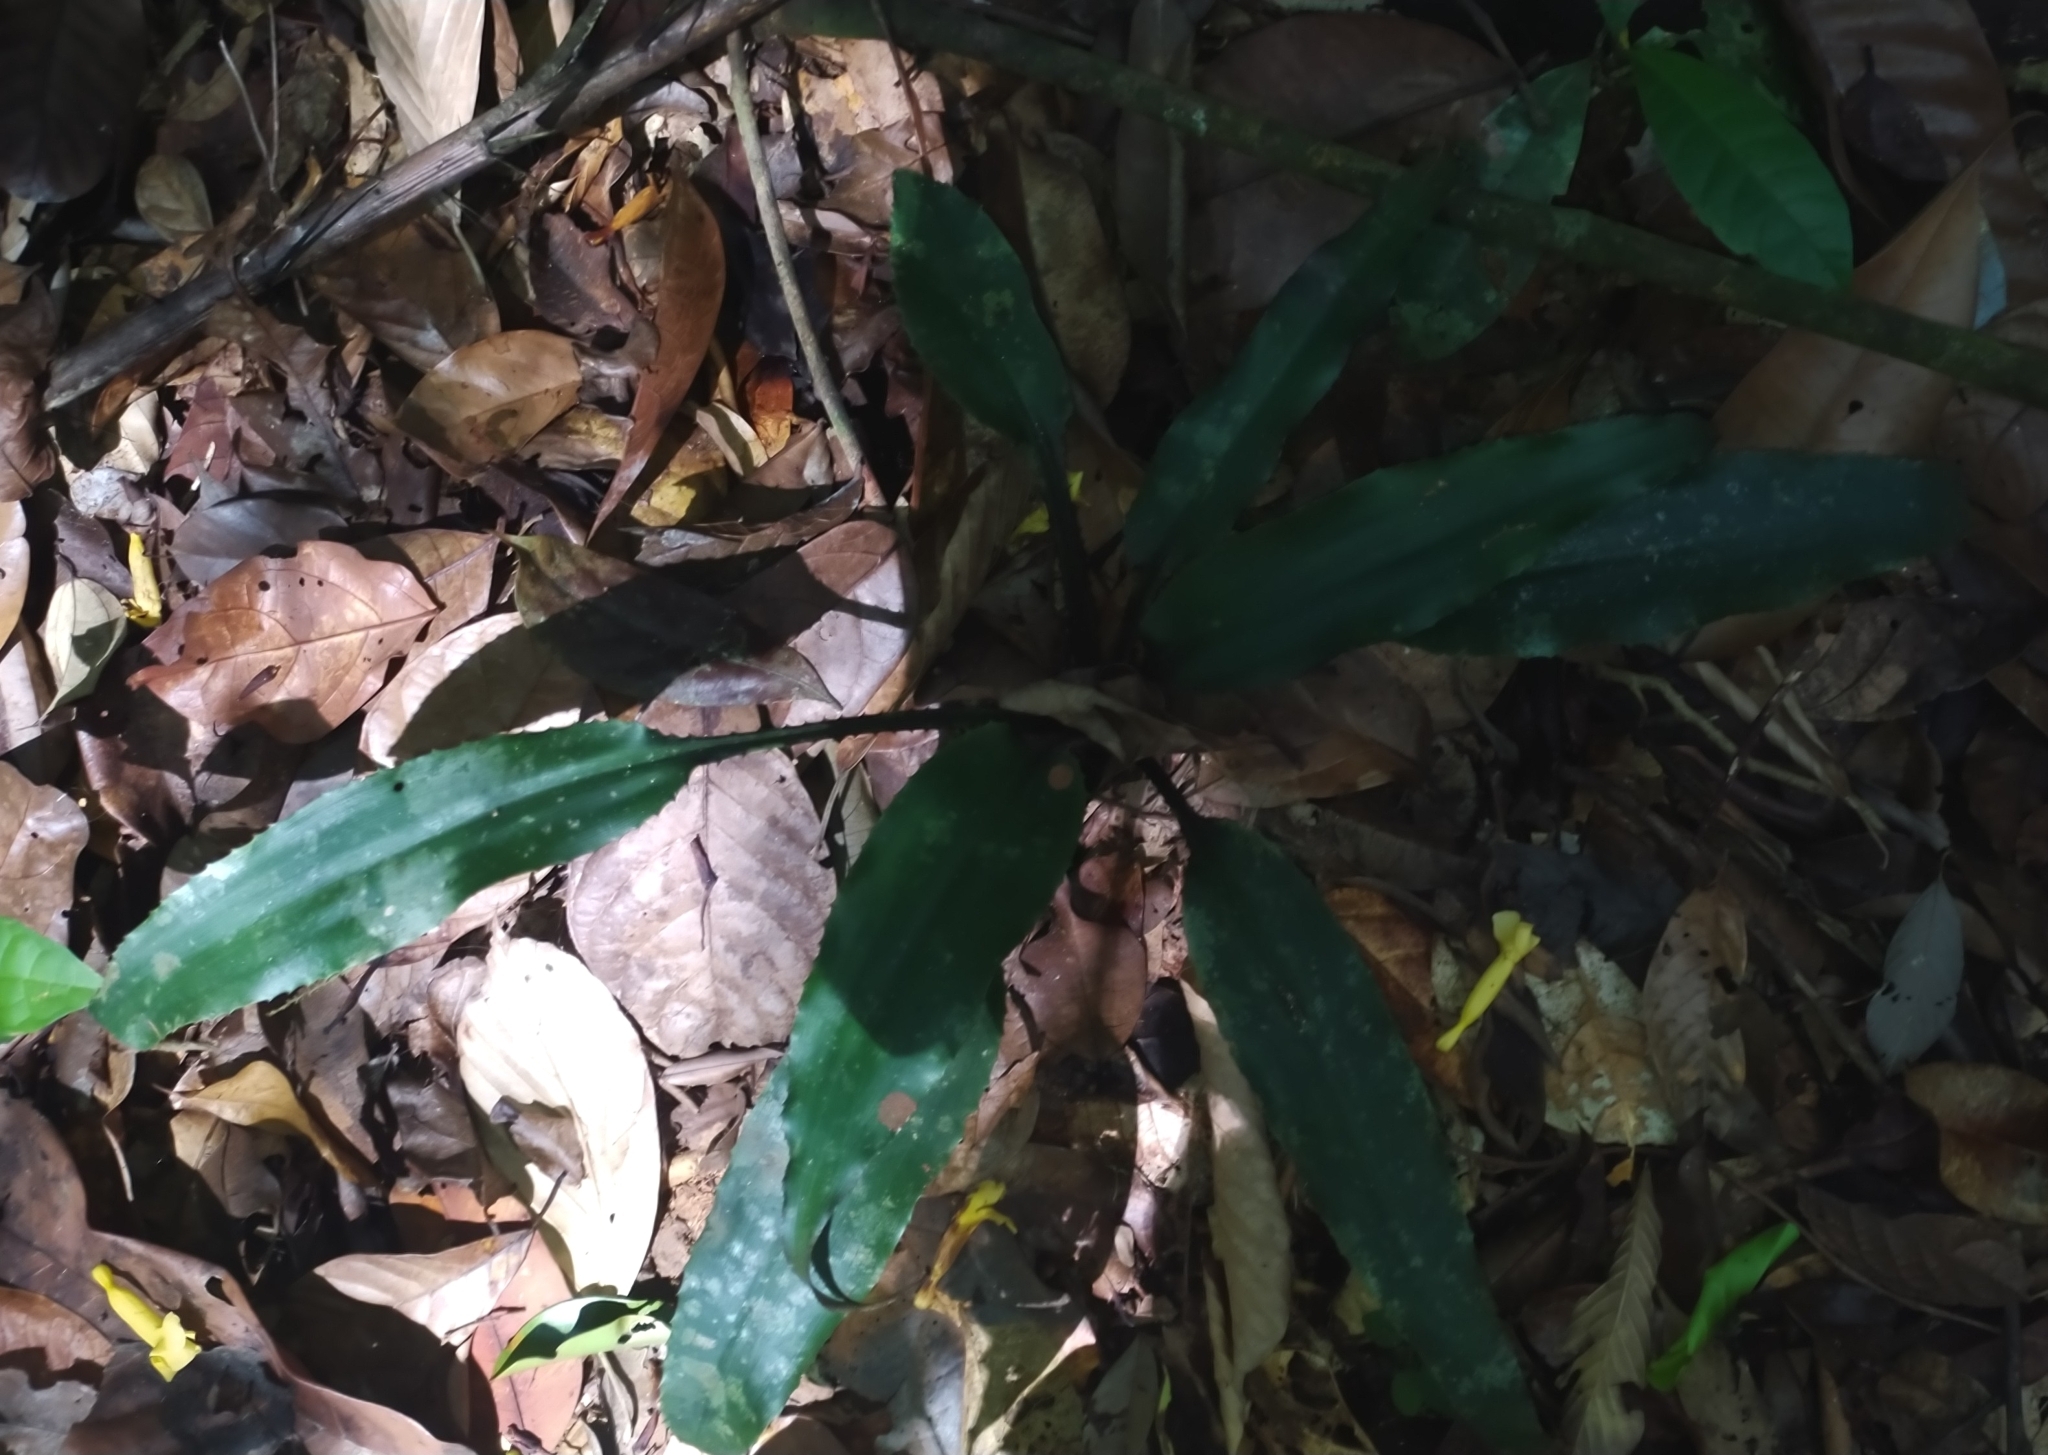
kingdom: Plantae
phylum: Tracheophyta
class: Liliopsida
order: Poales
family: Bromeliaceae
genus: Disteganthus
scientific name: Disteganthus basilateralis
